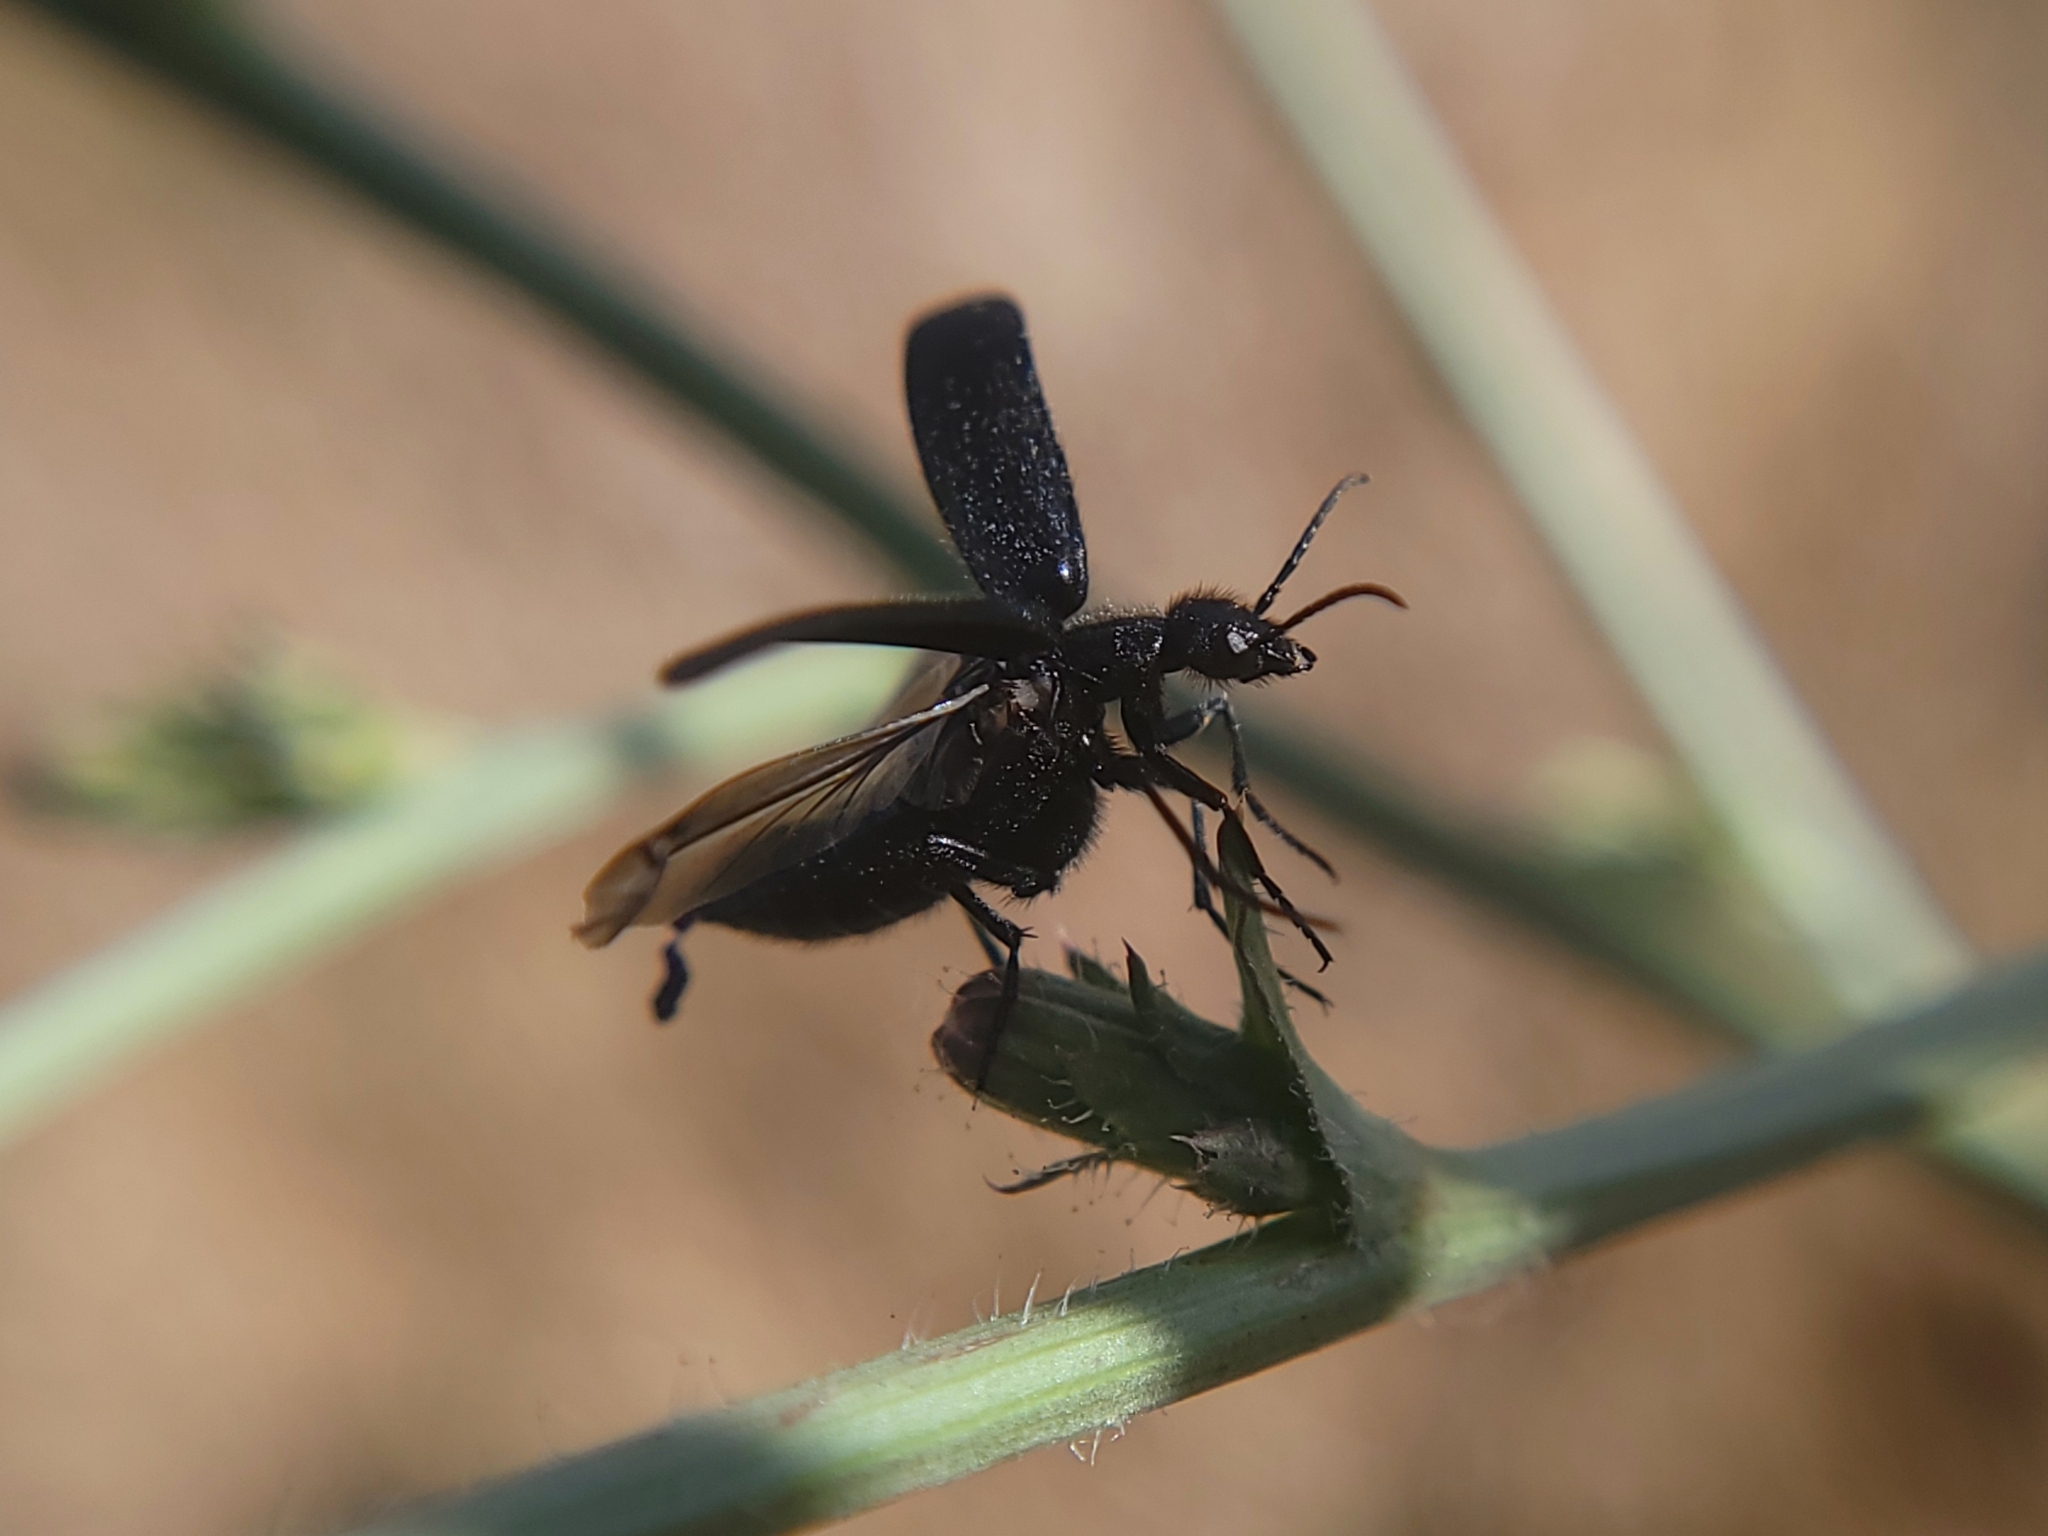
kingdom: Animalia
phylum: Arthropoda
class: Insecta
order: Coleoptera
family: Meloidae
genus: Epicauta
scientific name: Epicauta puncticollis
